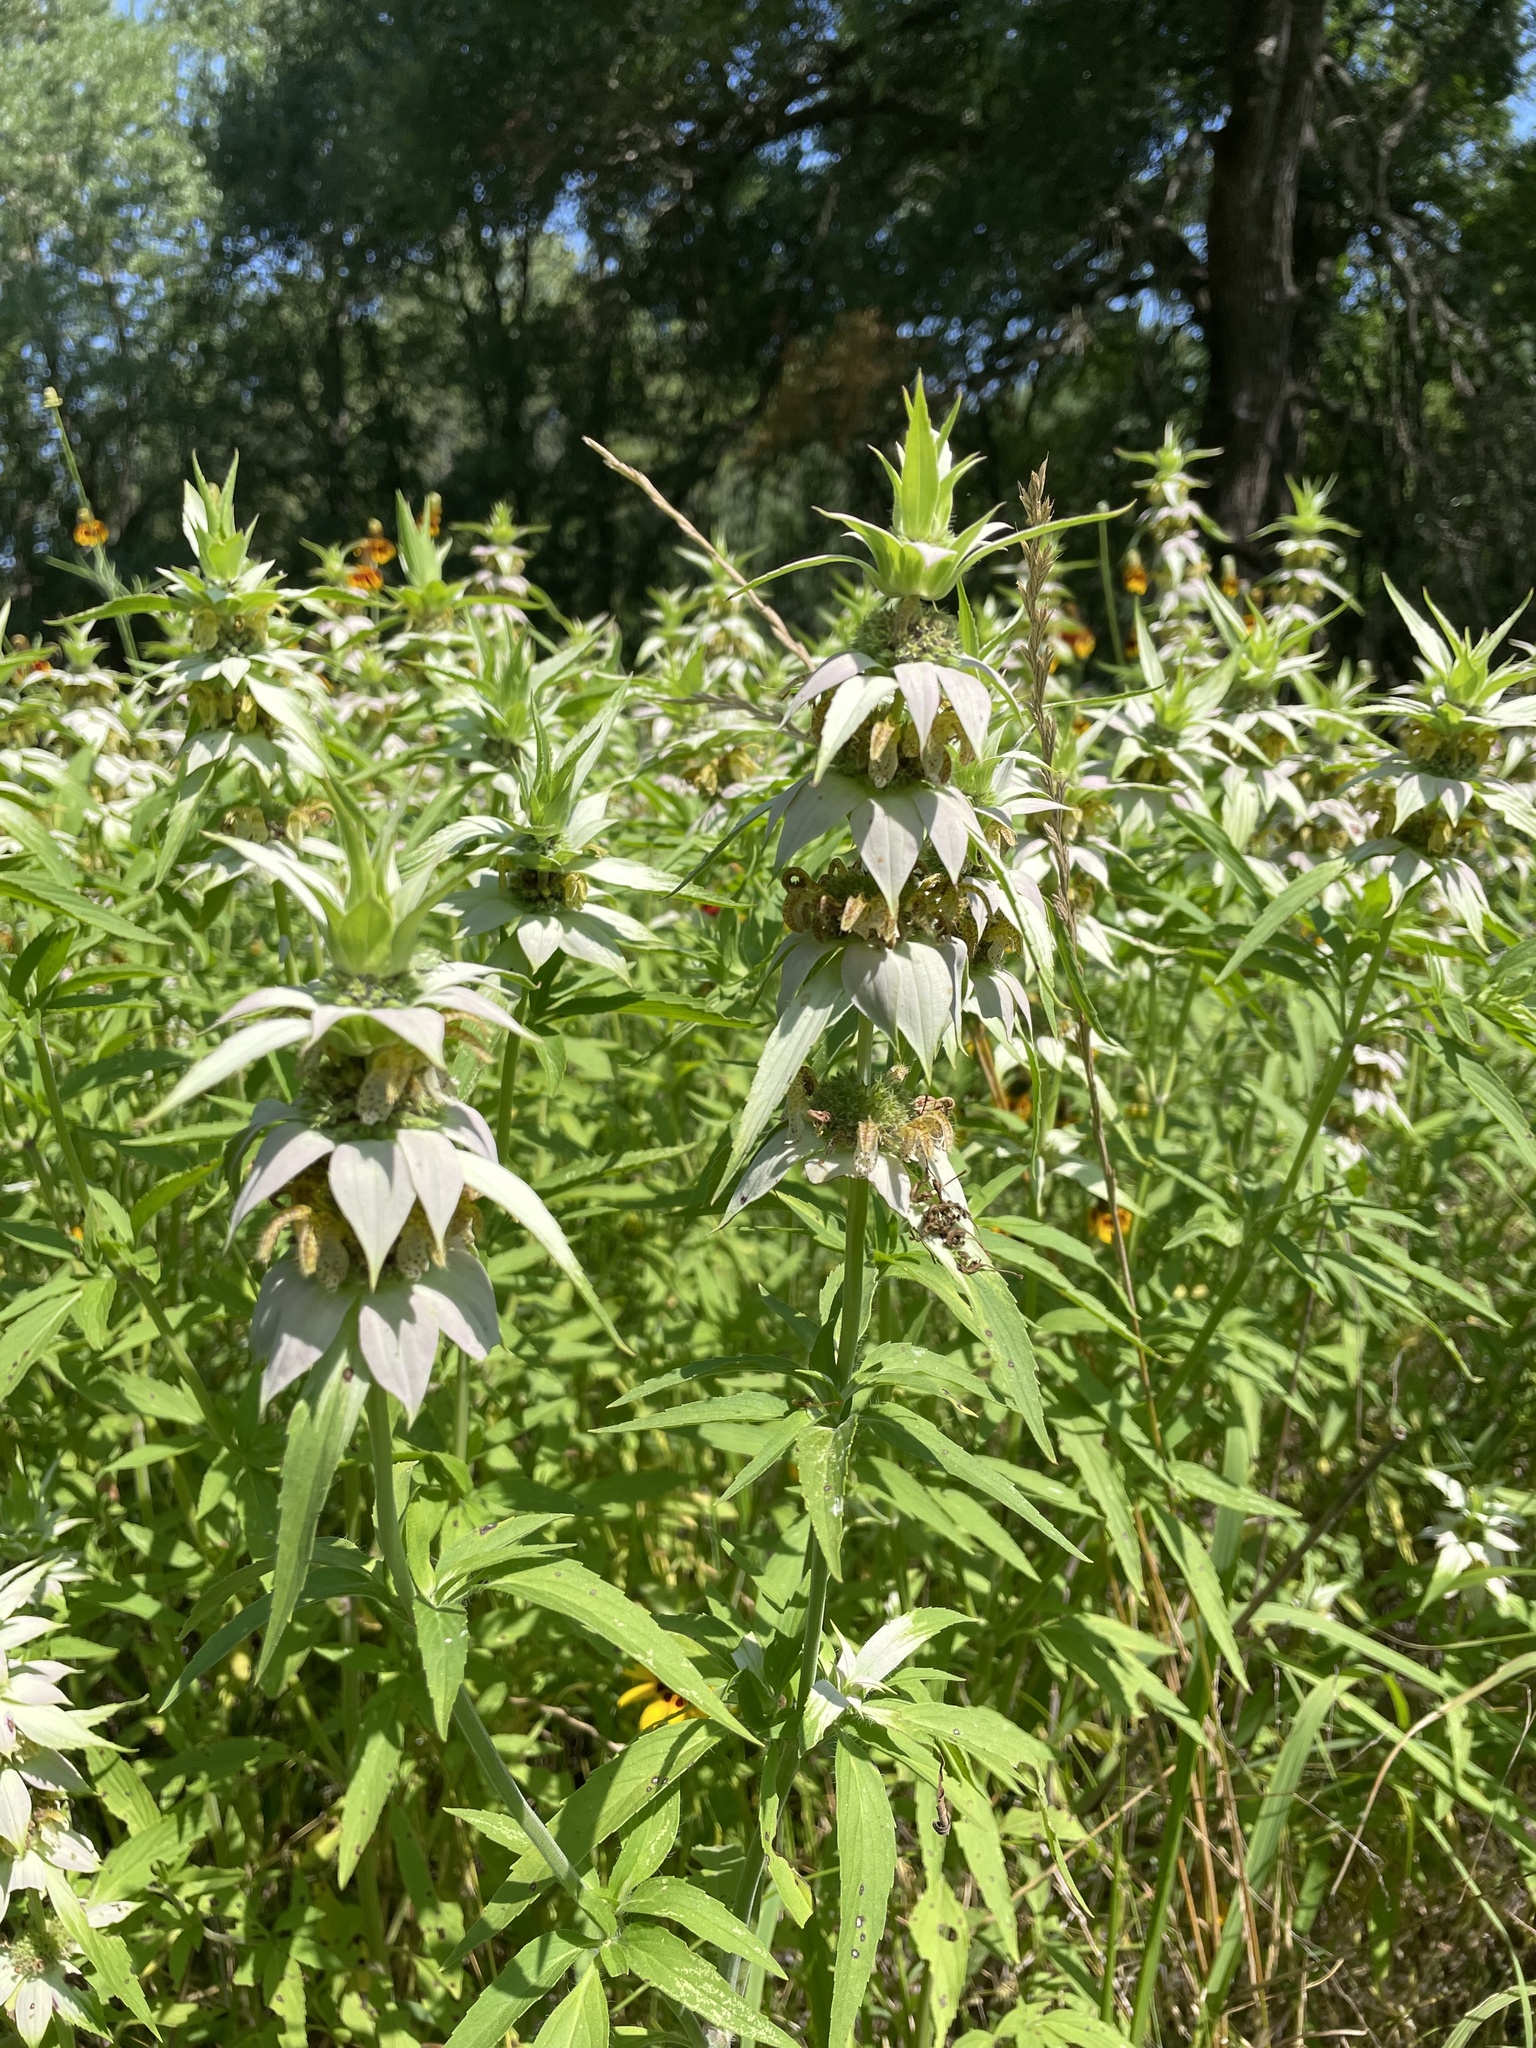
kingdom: Plantae
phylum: Tracheophyta
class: Magnoliopsida
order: Lamiales
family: Lamiaceae
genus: Monarda
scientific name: Monarda punctata
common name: Dotted monarda
